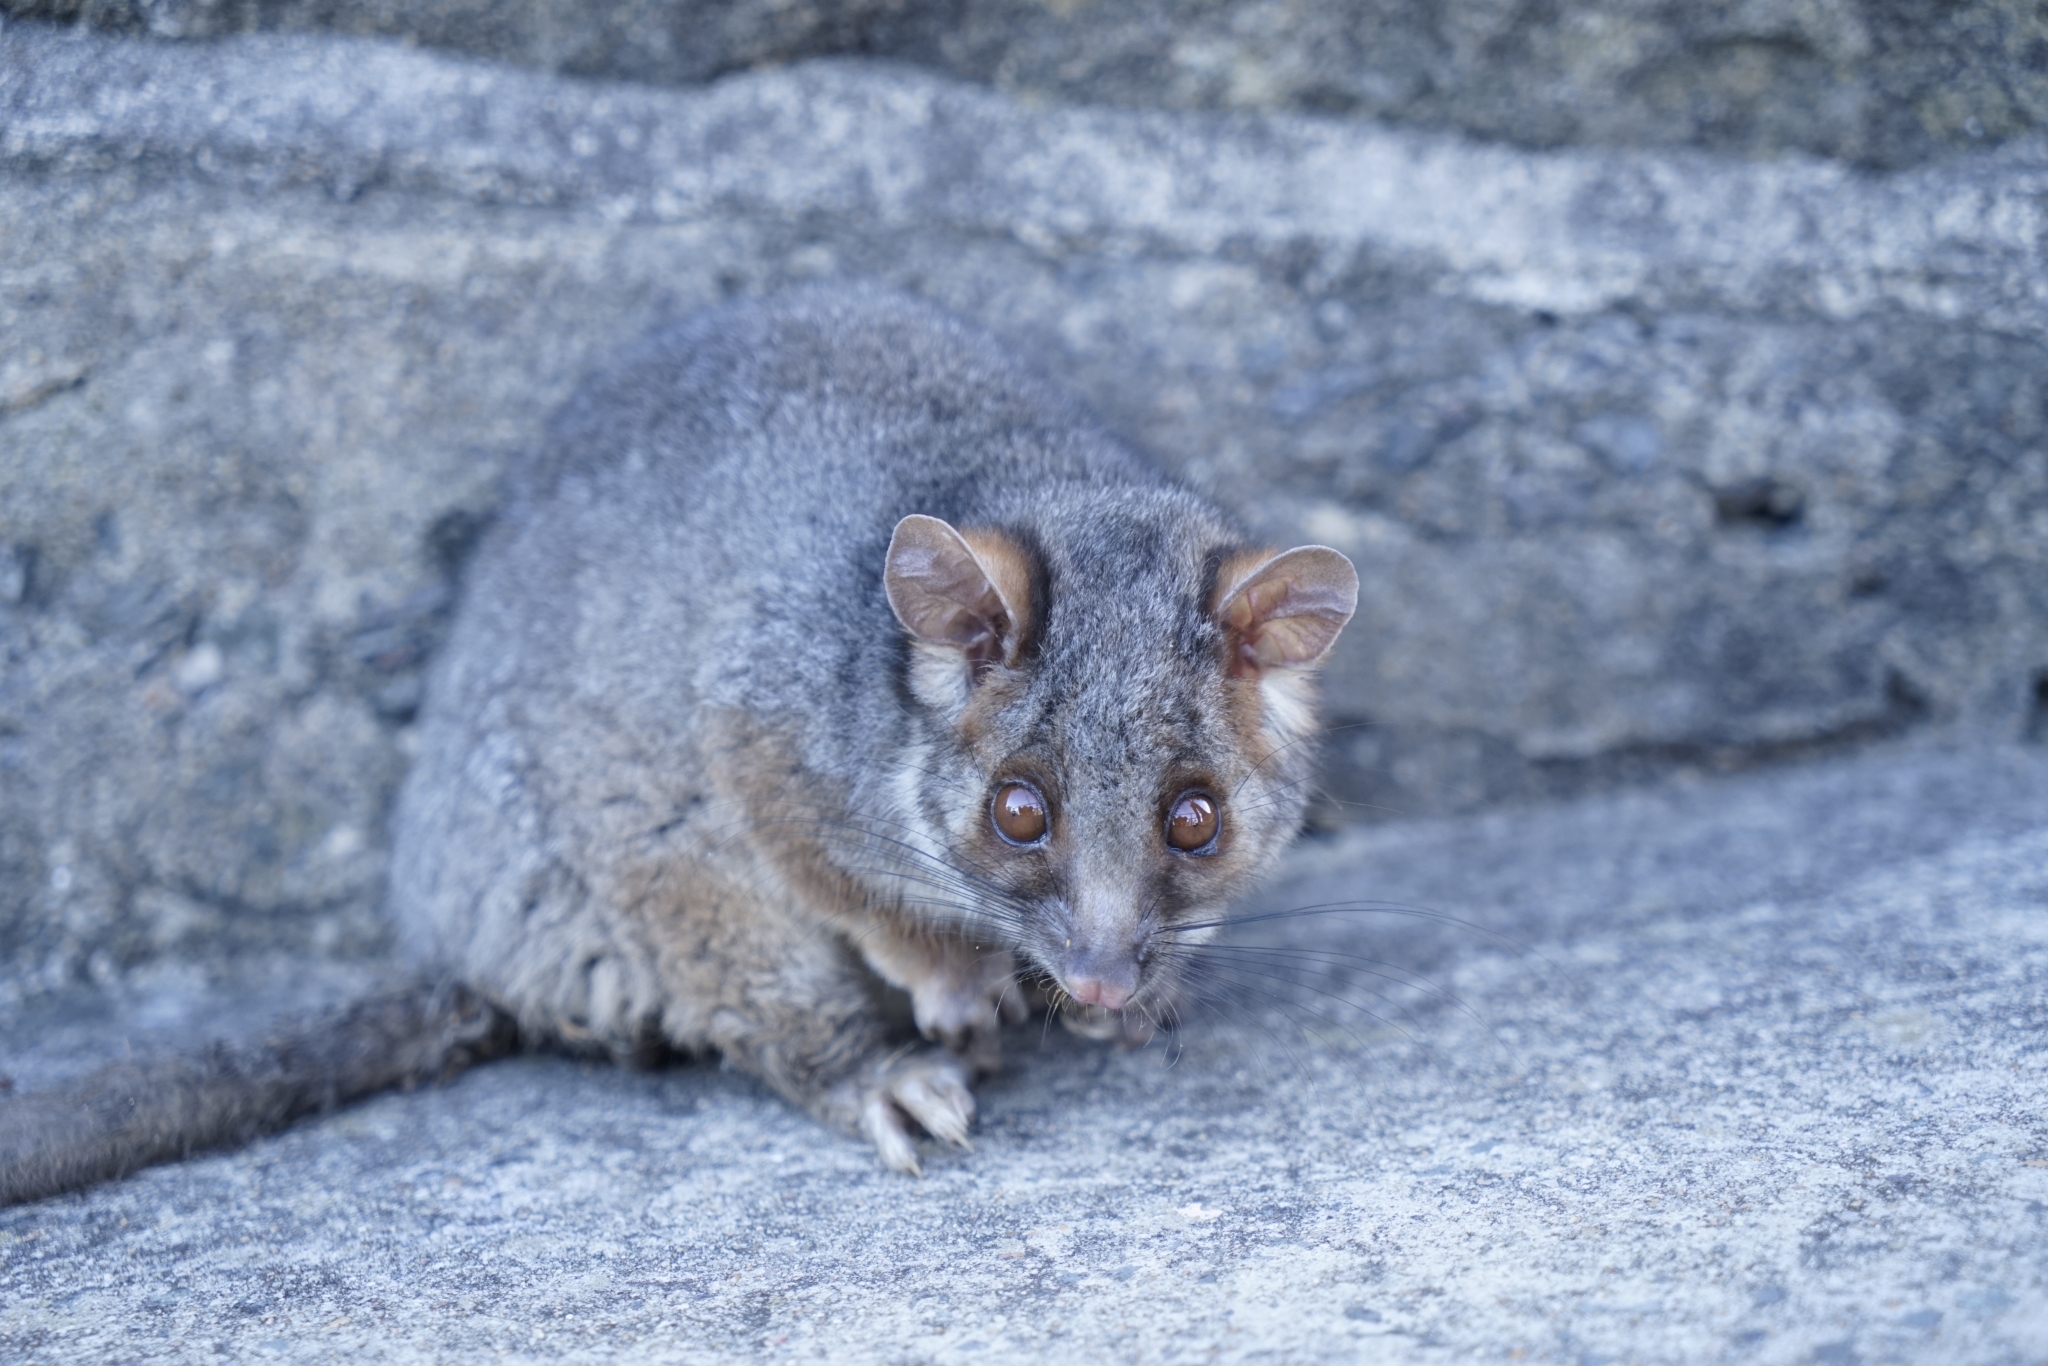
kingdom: Animalia
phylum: Chordata
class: Mammalia
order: Diprotodontia
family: Pseudocheiridae
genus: Pseudocheirus
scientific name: Pseudocheirus peregrinus
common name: Common ringtail possum
